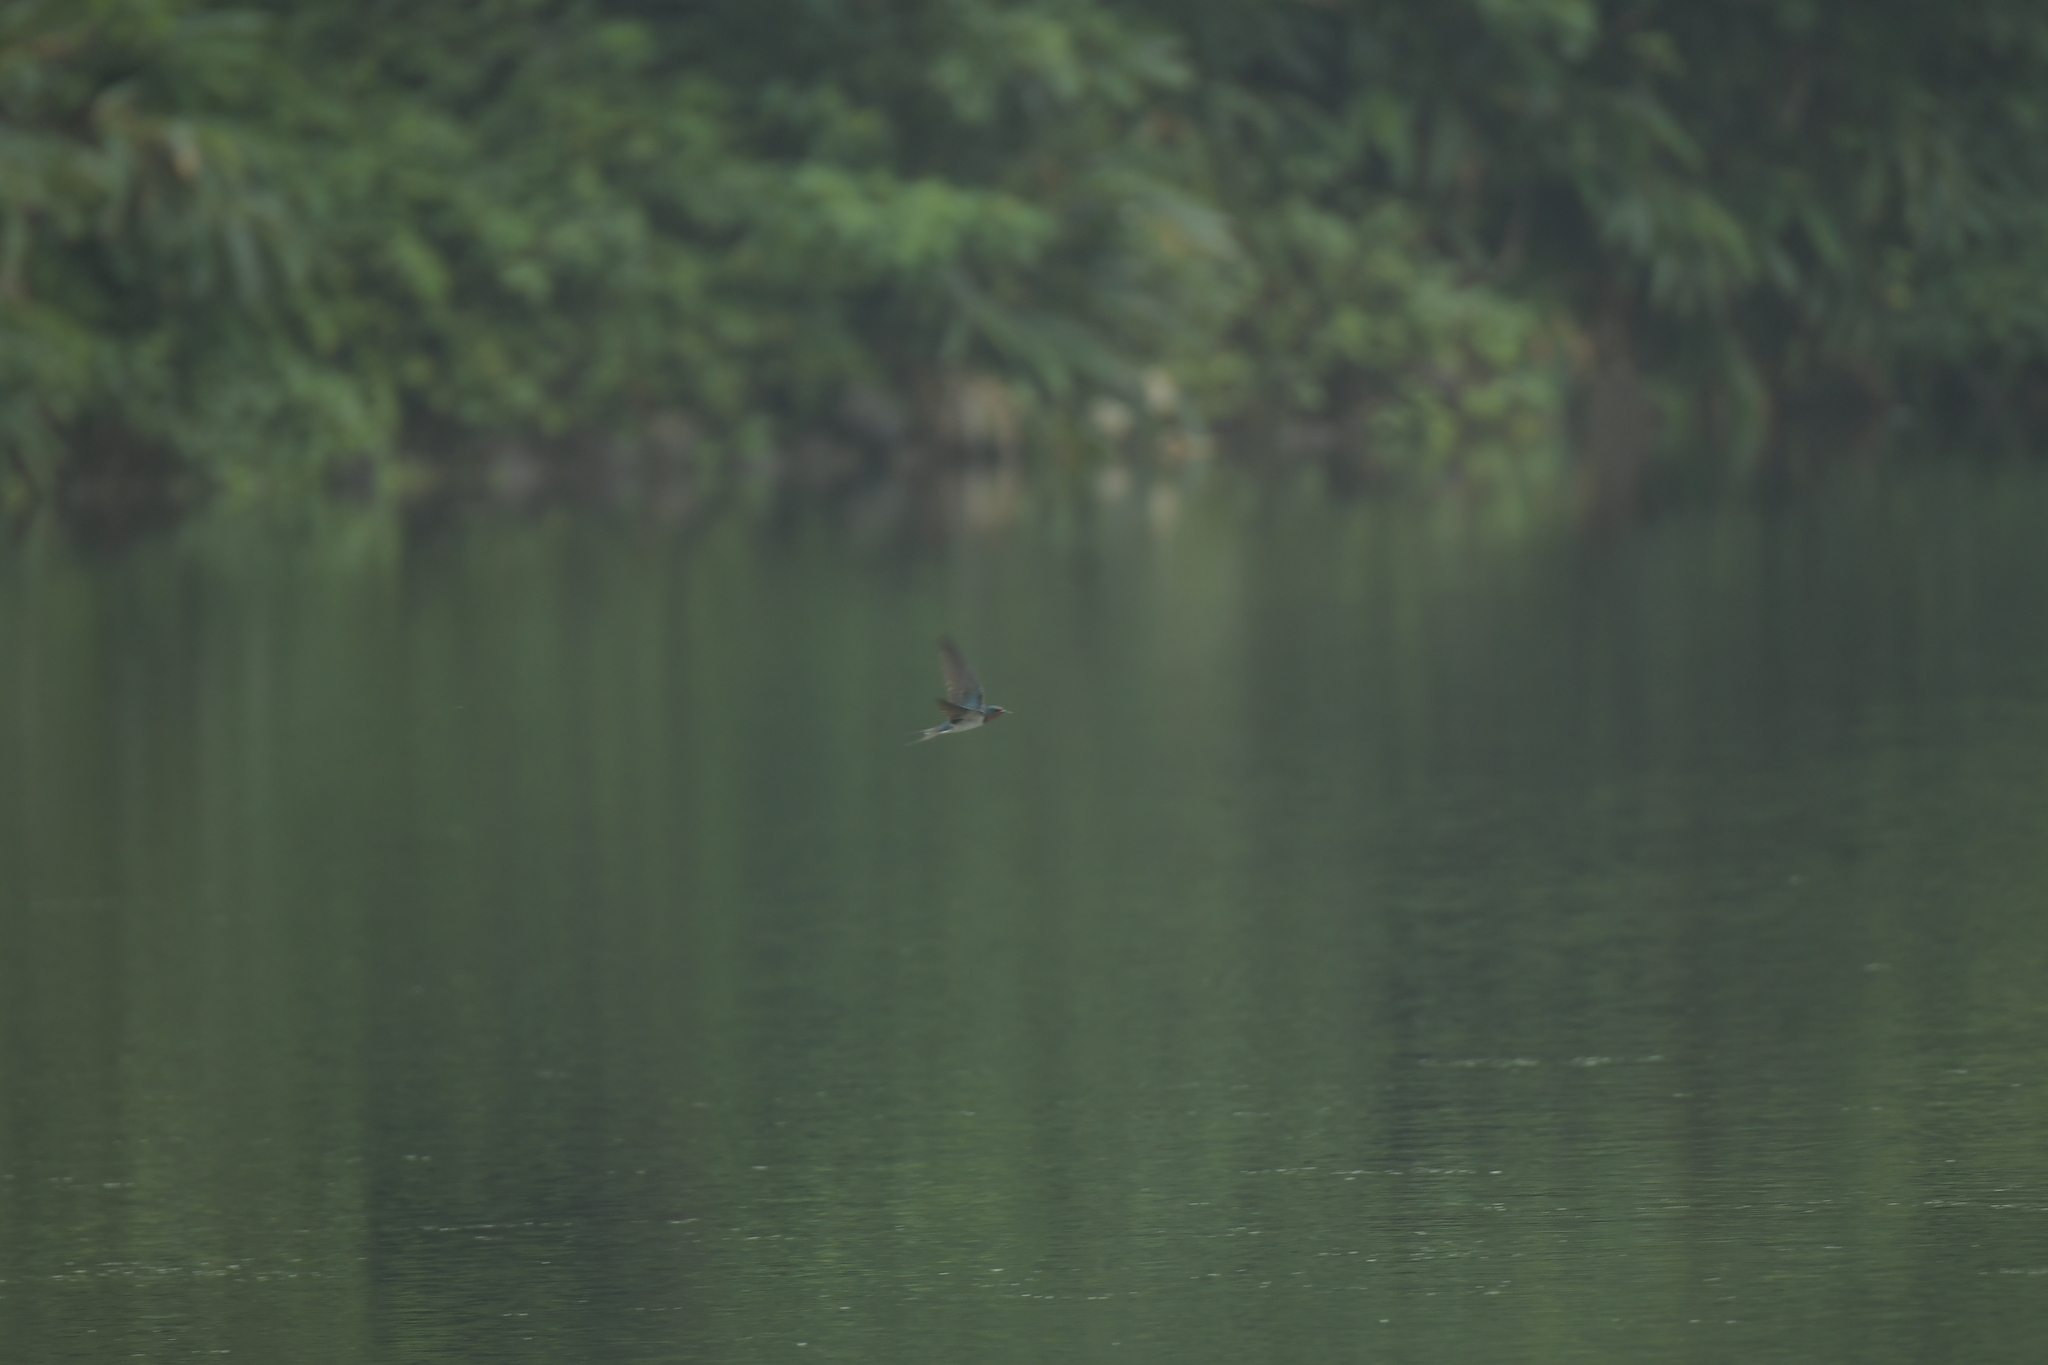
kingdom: Animalia
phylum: Chordata
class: Aves
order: Passeriformes
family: Hirundinidae
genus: Hirundo
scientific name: Hirundo rustica
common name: Barn swallow
